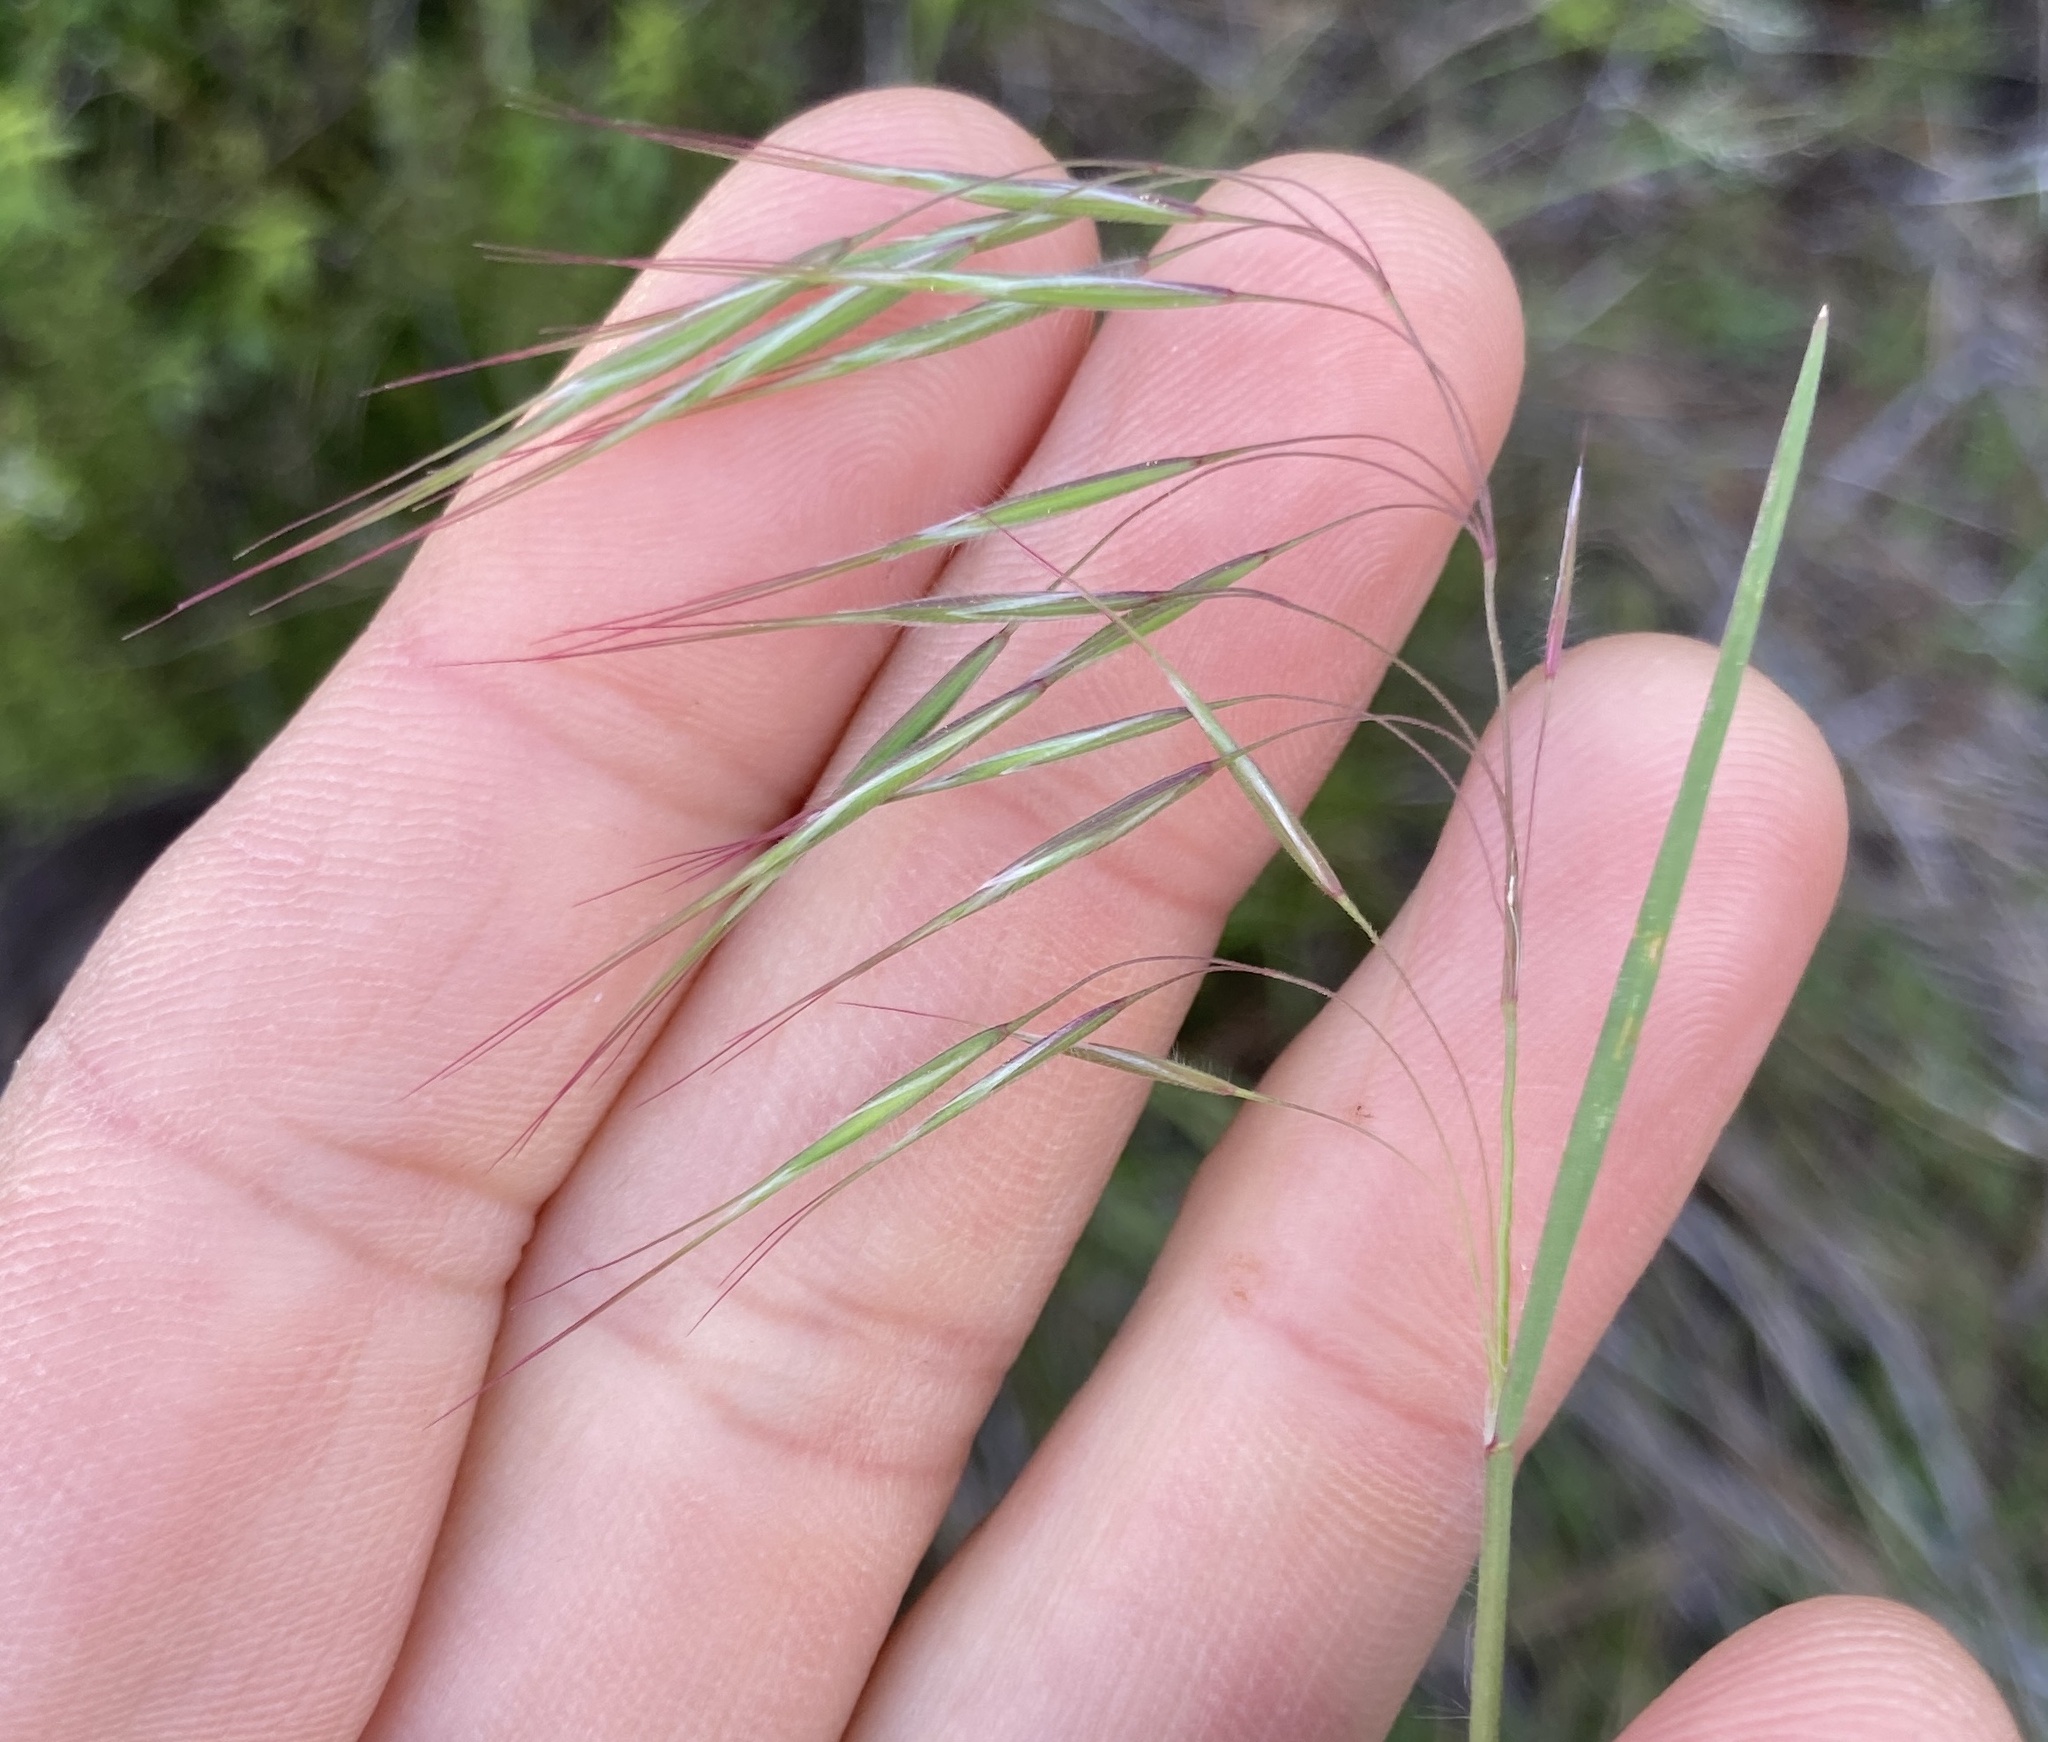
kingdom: Plantae
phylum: Tracheophyta
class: Liliopsida
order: Poales
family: Poaceae
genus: Bromus
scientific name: Bromus tectorum
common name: Cheatgrass
